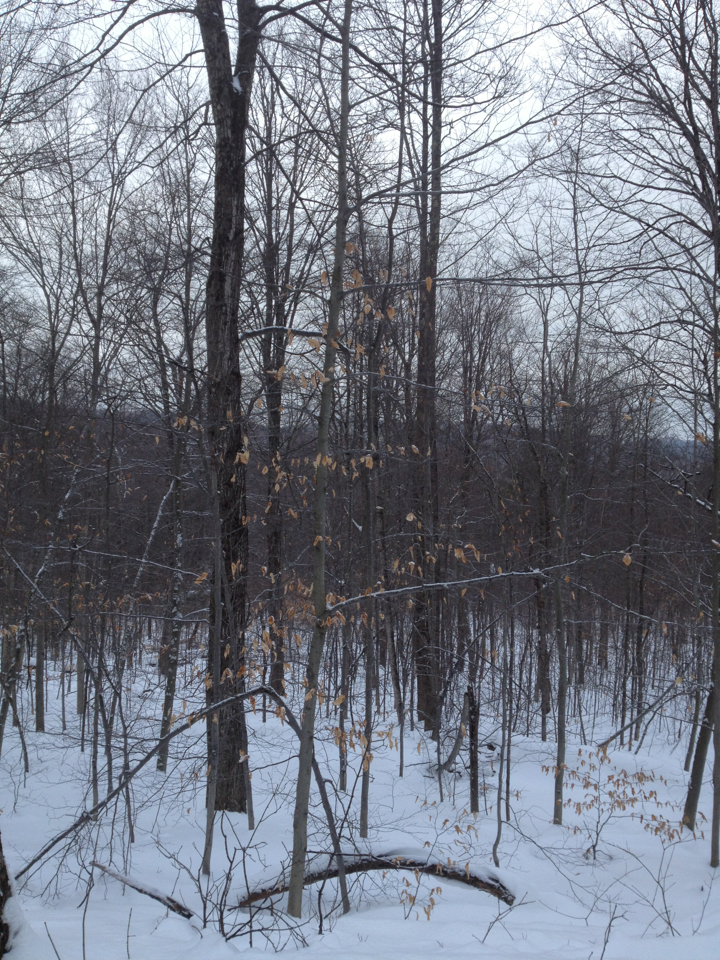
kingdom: Plantae
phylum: Tracheophyta
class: Magnoliopsida
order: Fagales
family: Fagaceae
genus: Fagus
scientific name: Fagus grandifolia
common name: American beech
